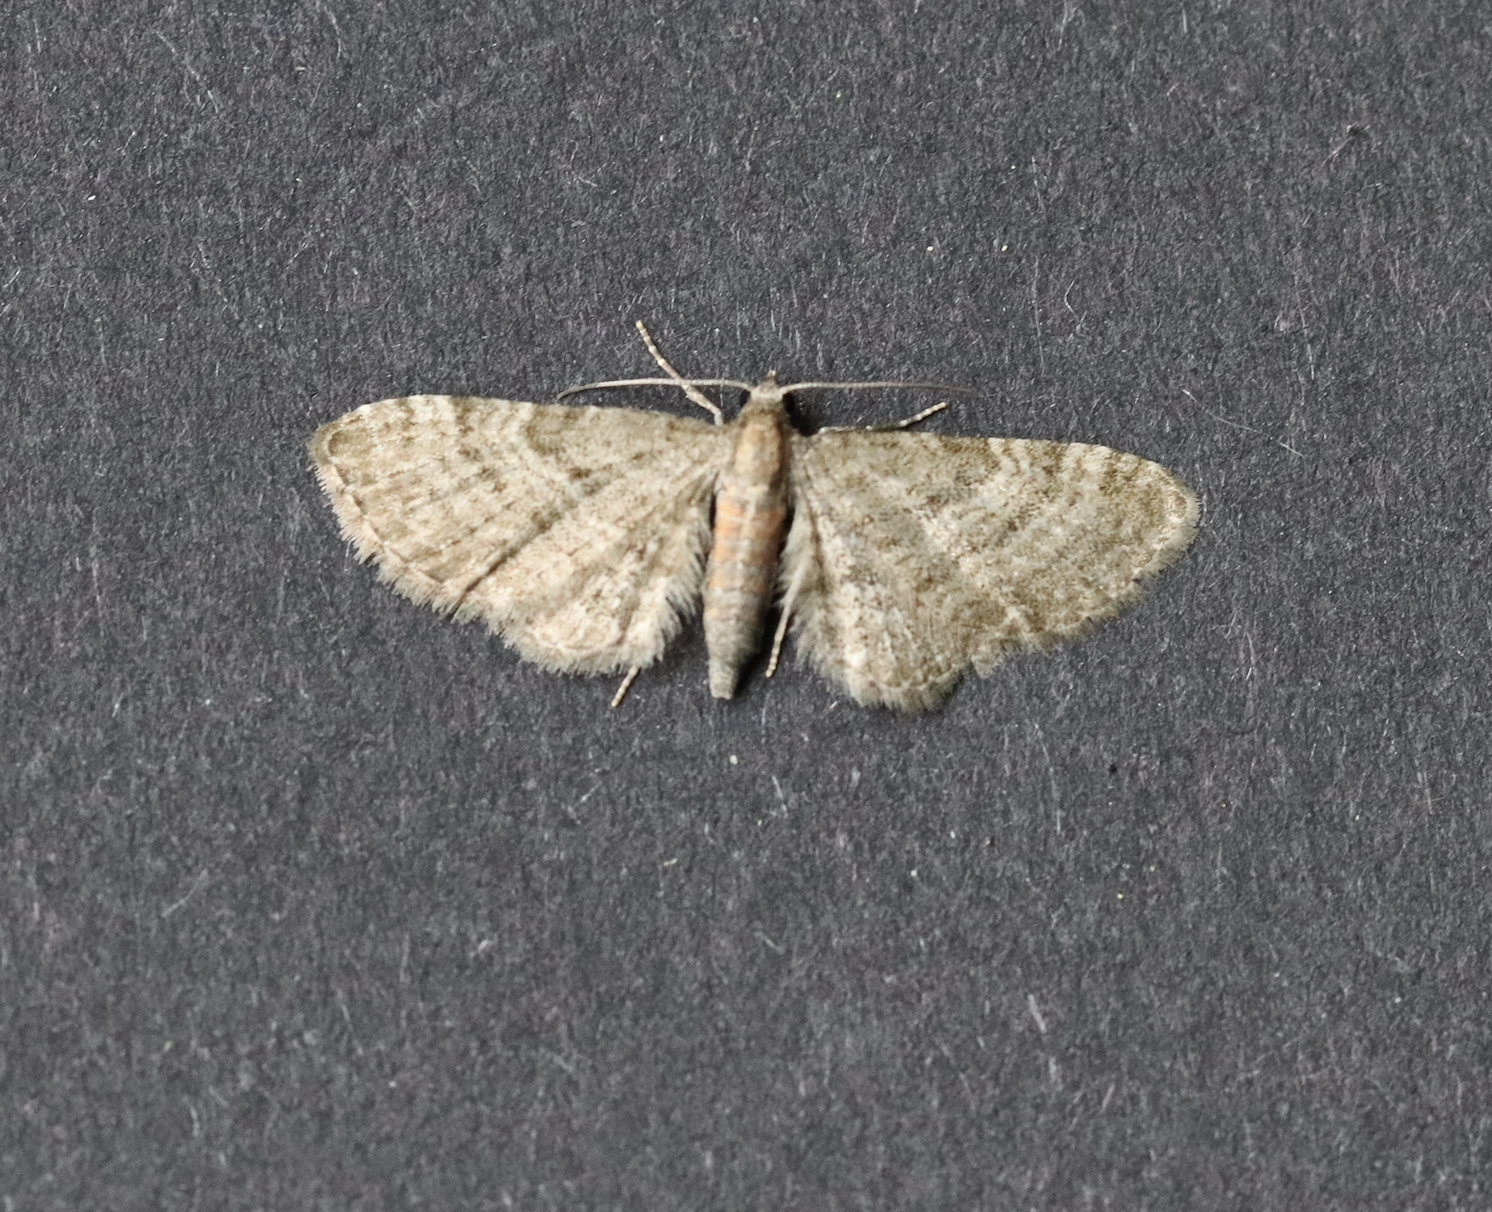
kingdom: Animalia
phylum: Arthropoda
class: Insecta
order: Lepidoptera
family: Geometridae
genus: Eupithecia
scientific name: Eupithecia haworthiata
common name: Haworth's pug
